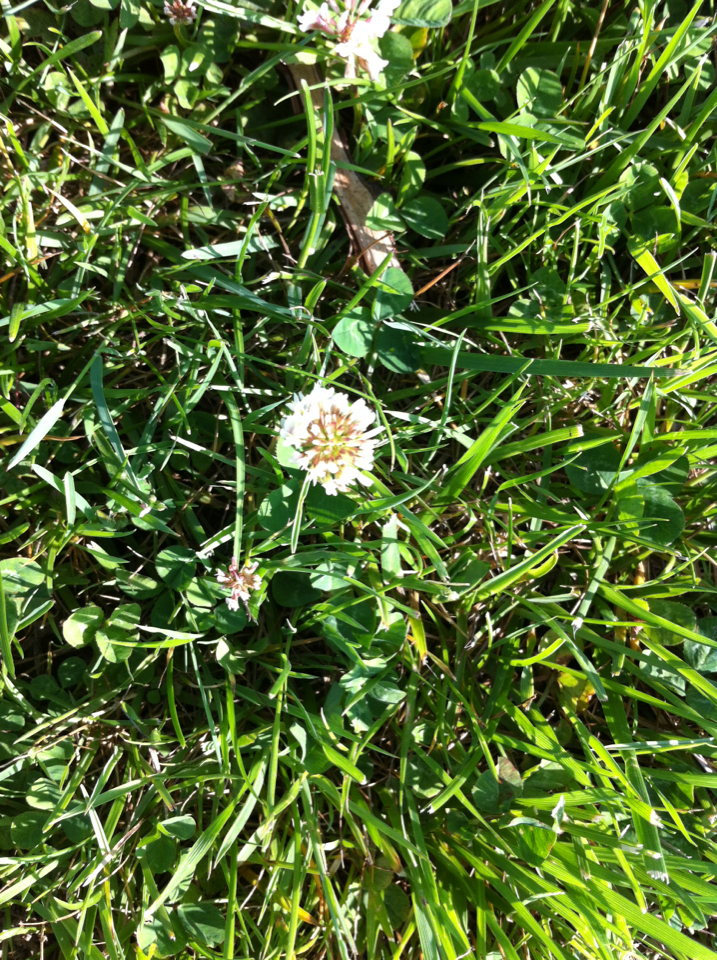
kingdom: Plantae
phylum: Tracheophyta
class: Magnoliopsida
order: Fabales
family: Fabaceae
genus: Trifolium
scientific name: Trifolium repens
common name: White clover
